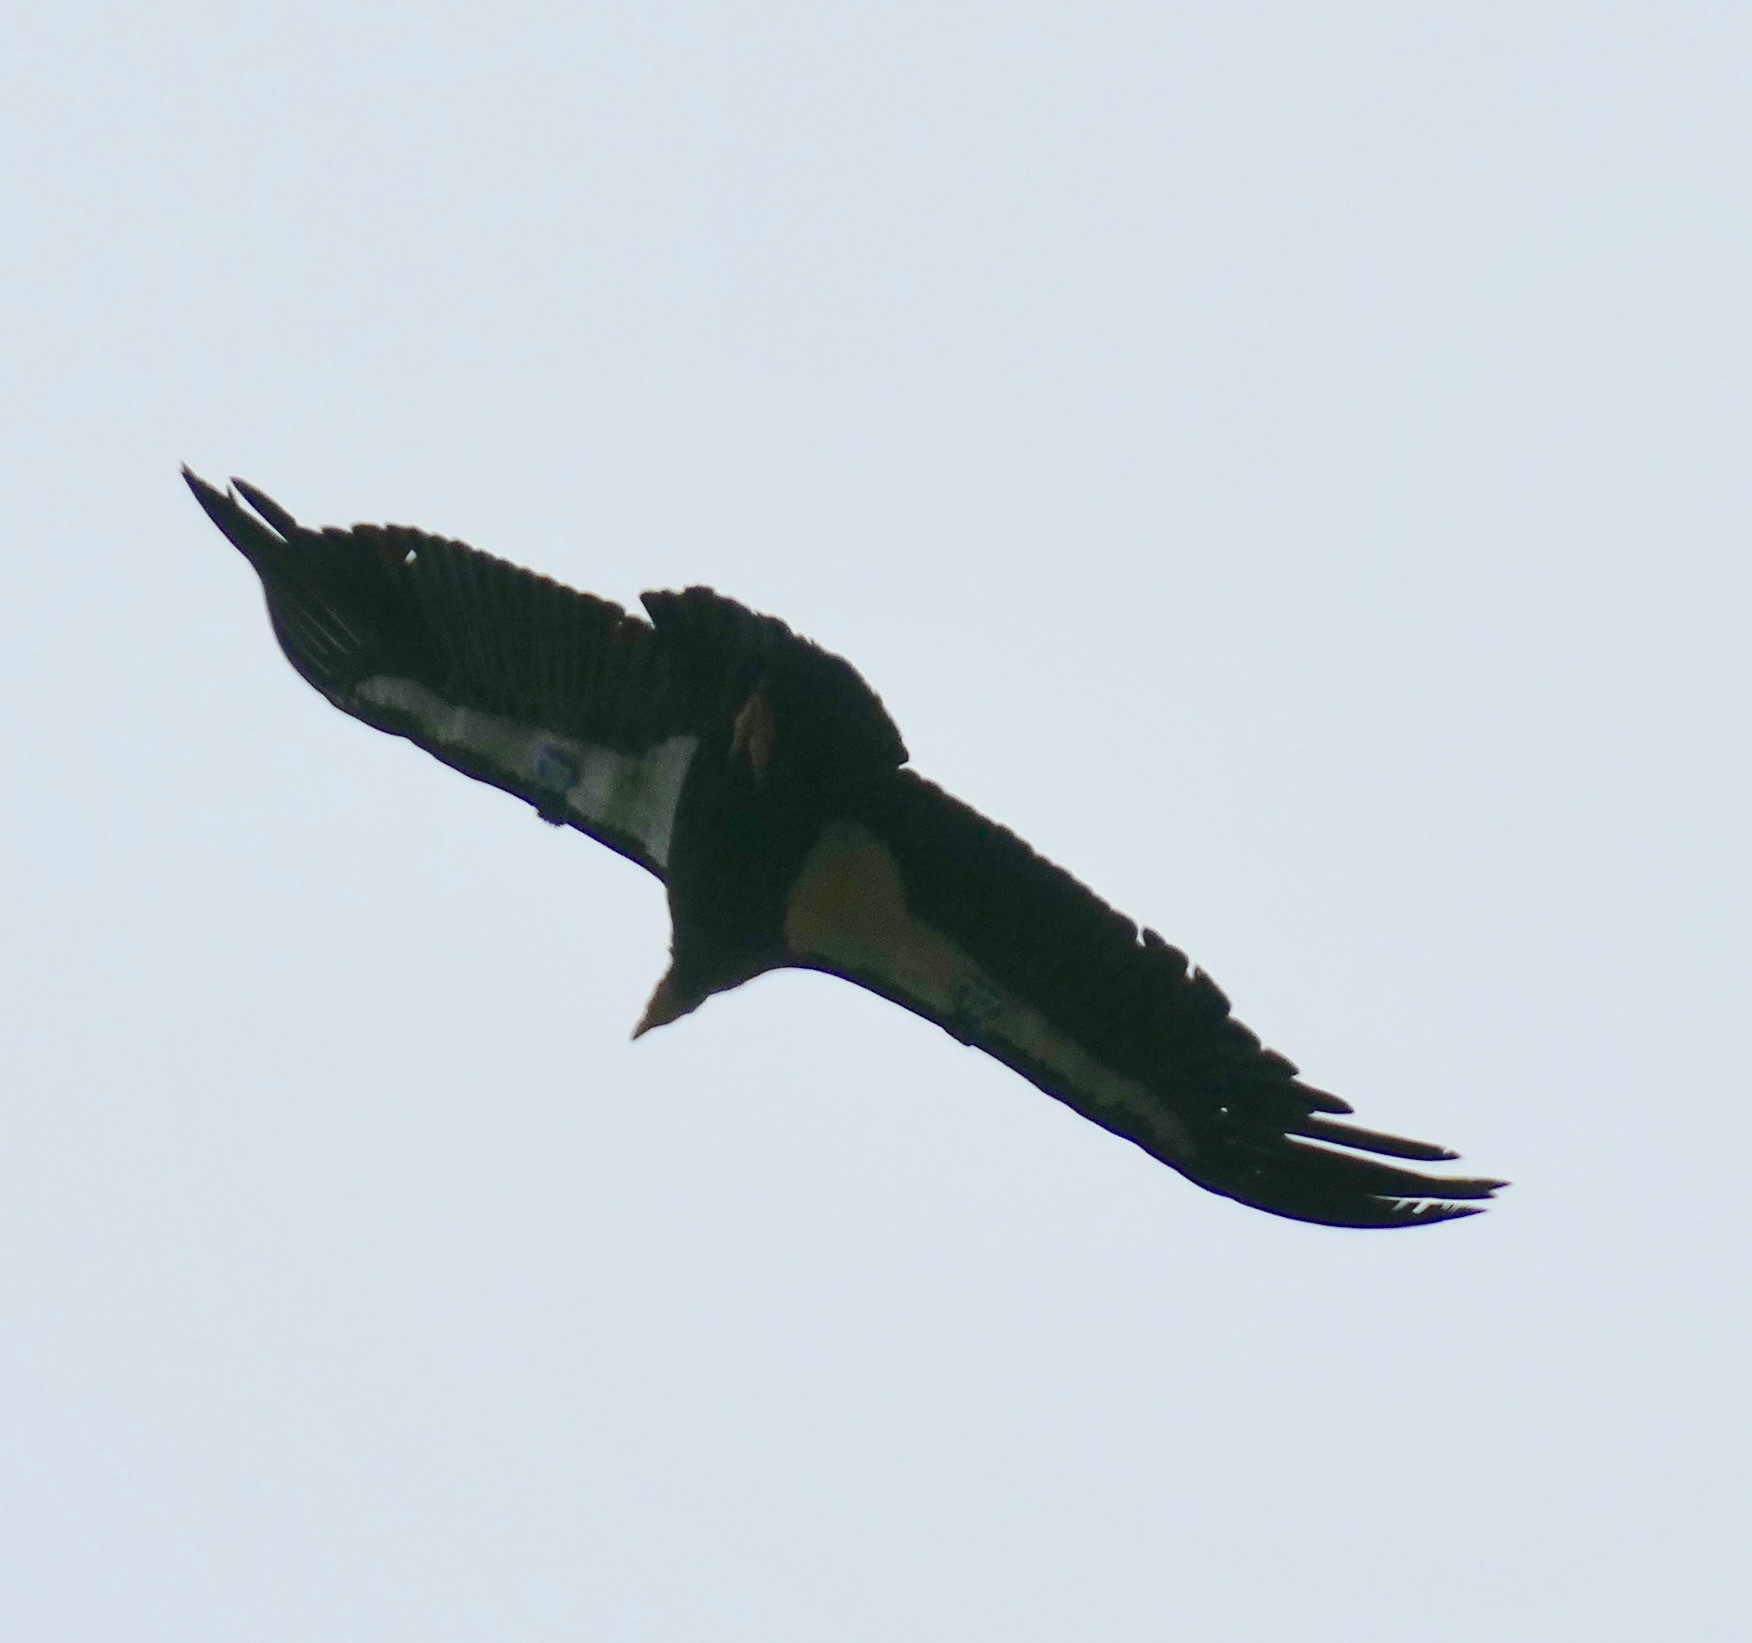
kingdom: Animalia
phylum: Chordata
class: Aves
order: Accipitriformes
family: Cathartidae
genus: Gymnogyps
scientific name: Gymnogyps californianus
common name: California condor
